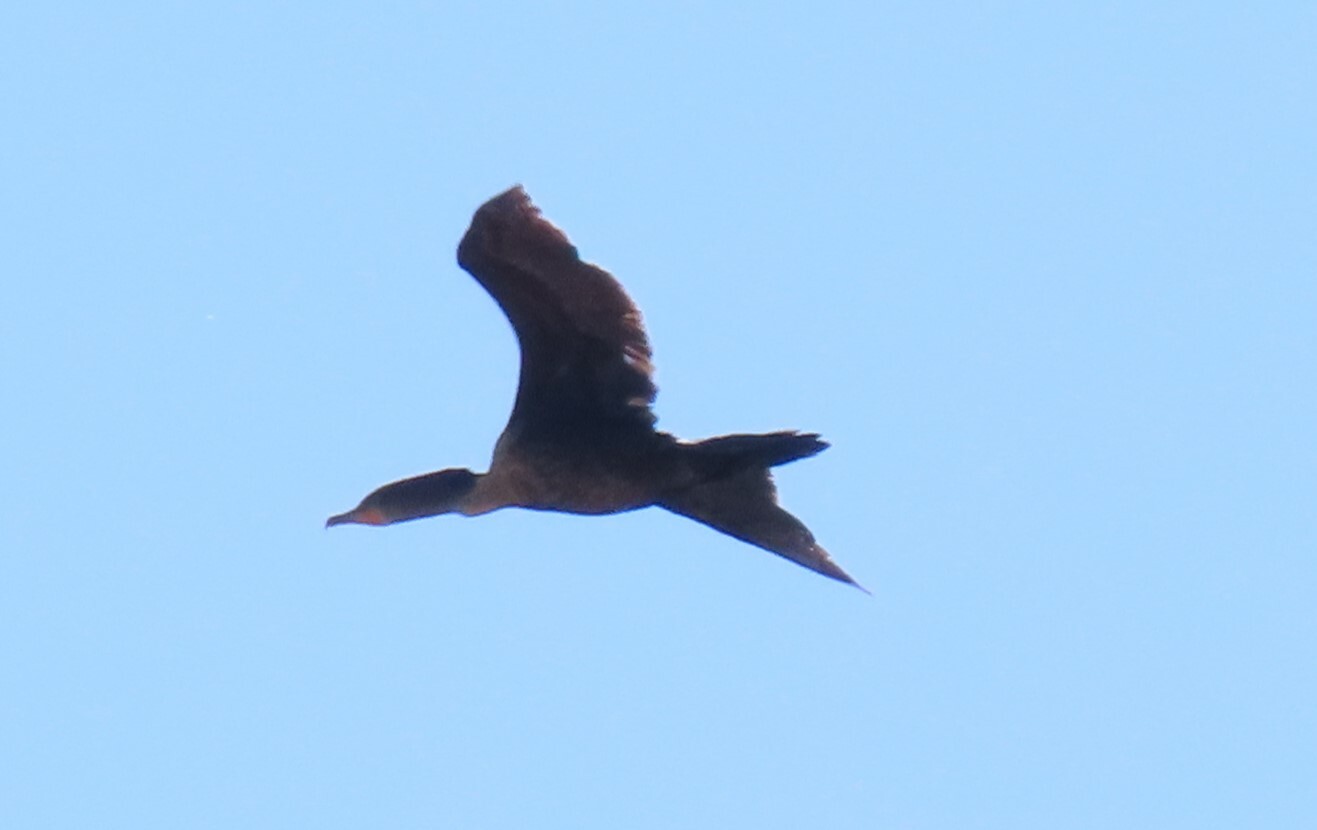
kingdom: Animalia
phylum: Chordata
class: Aves
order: Suliformes
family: Phalacrocoracidae
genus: Phalacrocorax
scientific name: Phalacrocorax auritus
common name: Double-crested cormorant
